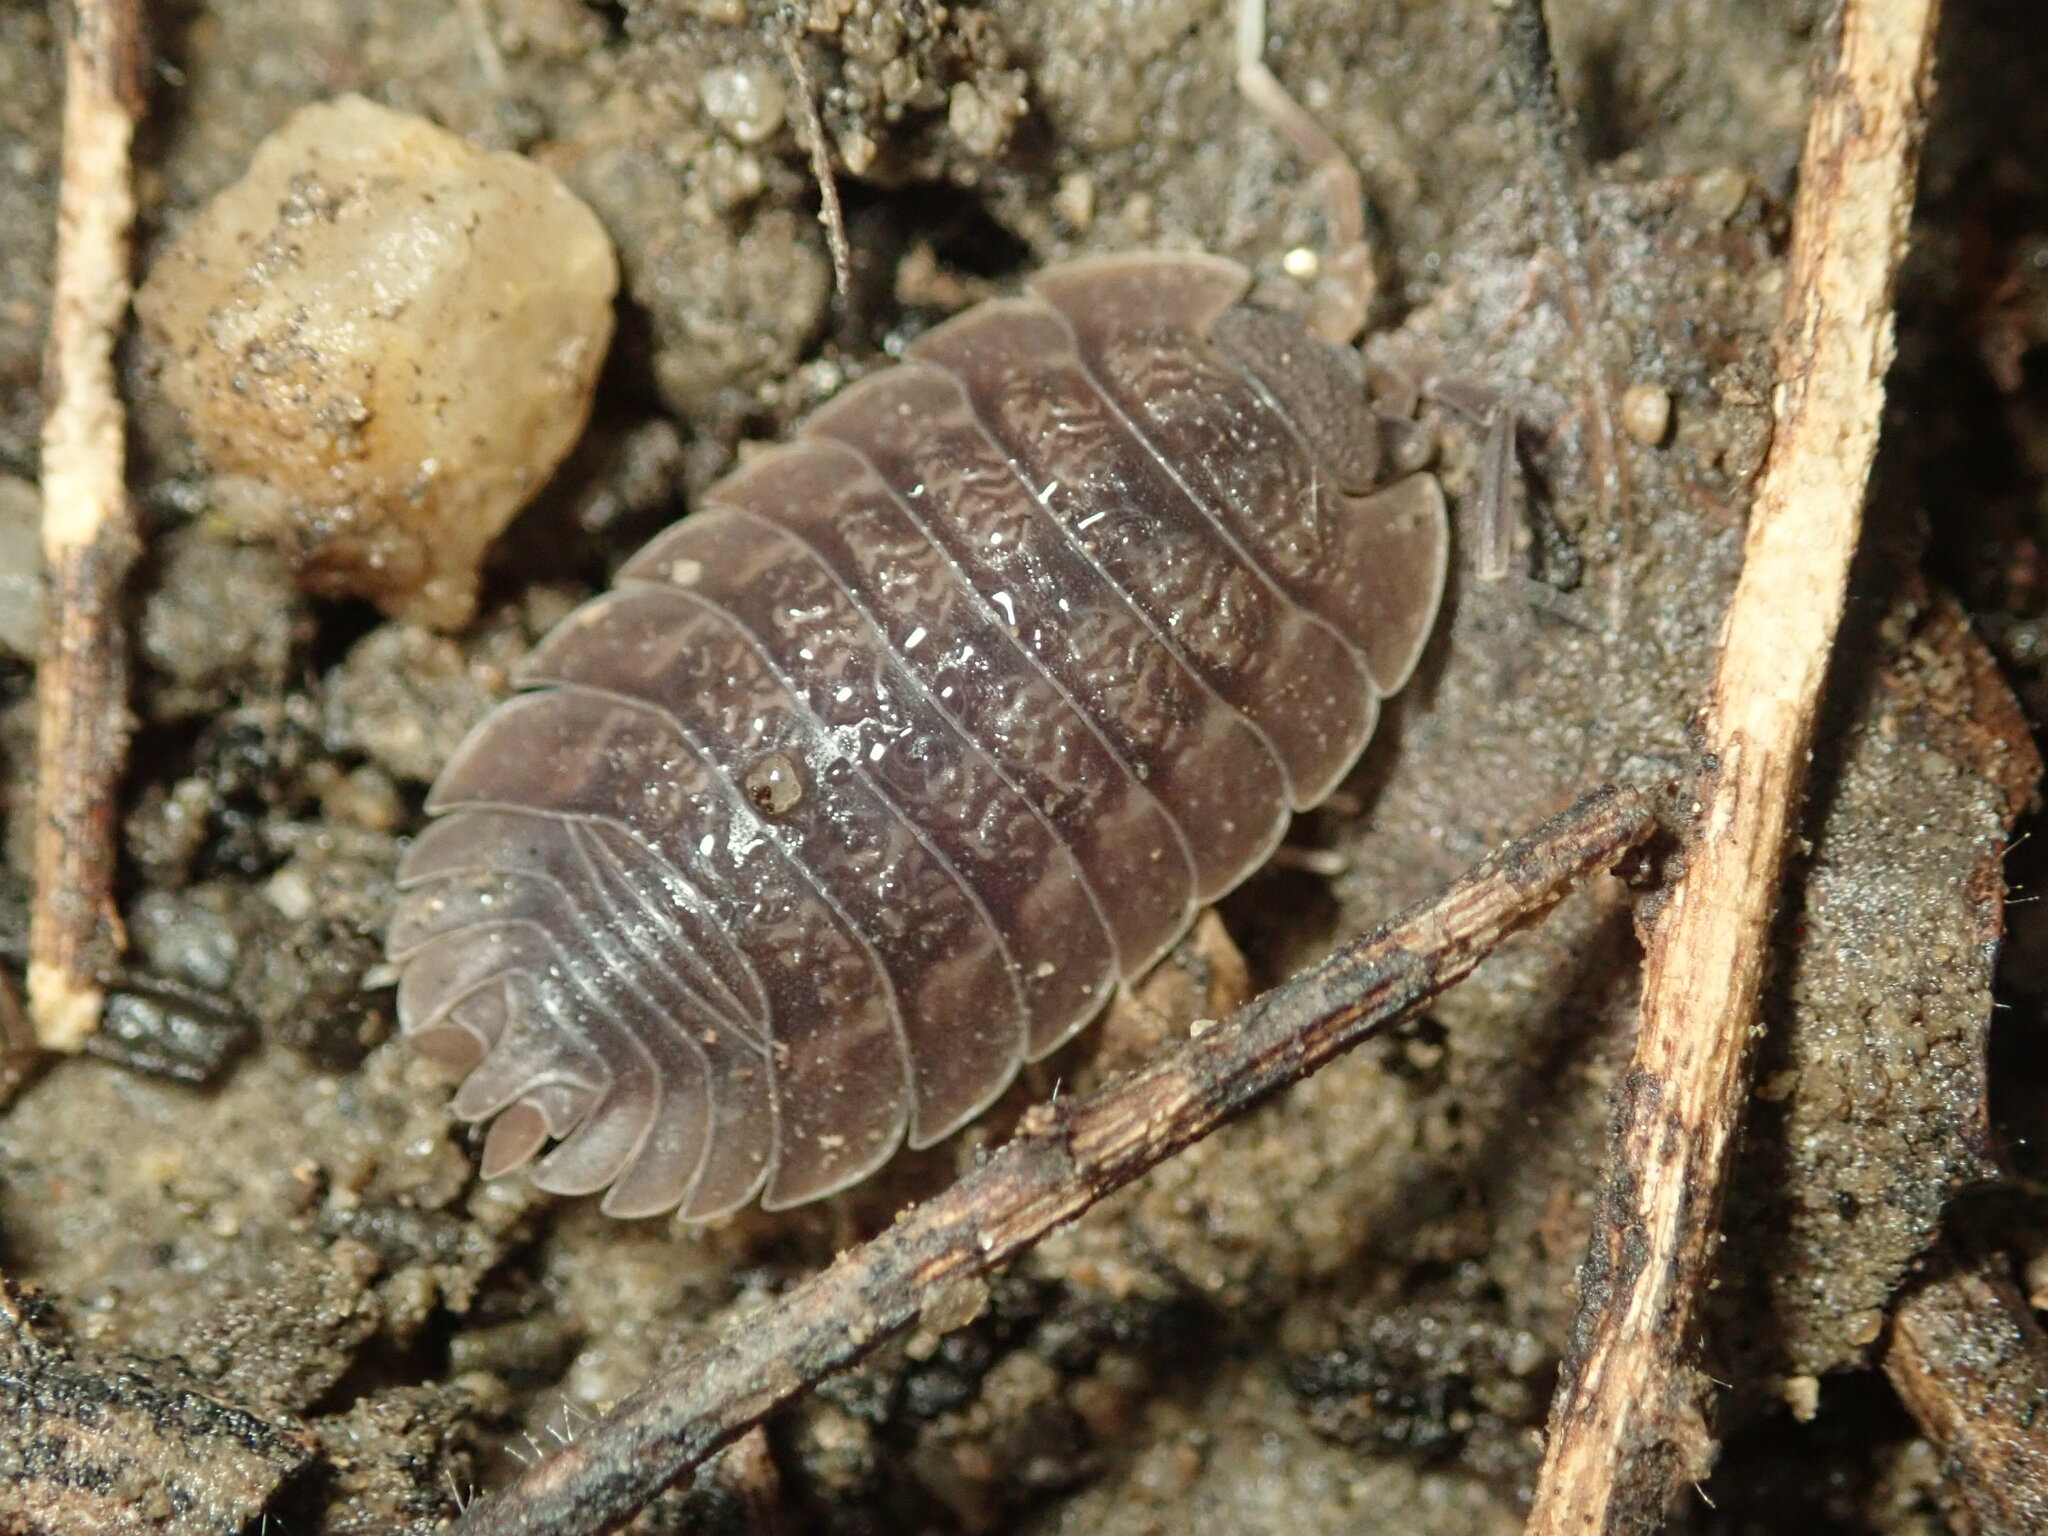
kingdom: Animalia
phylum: Arthropoda
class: Malacostraca
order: Isopoda
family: Porcellionidae
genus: Porcellio
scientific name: Porcellio dilatatus
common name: Isopod
